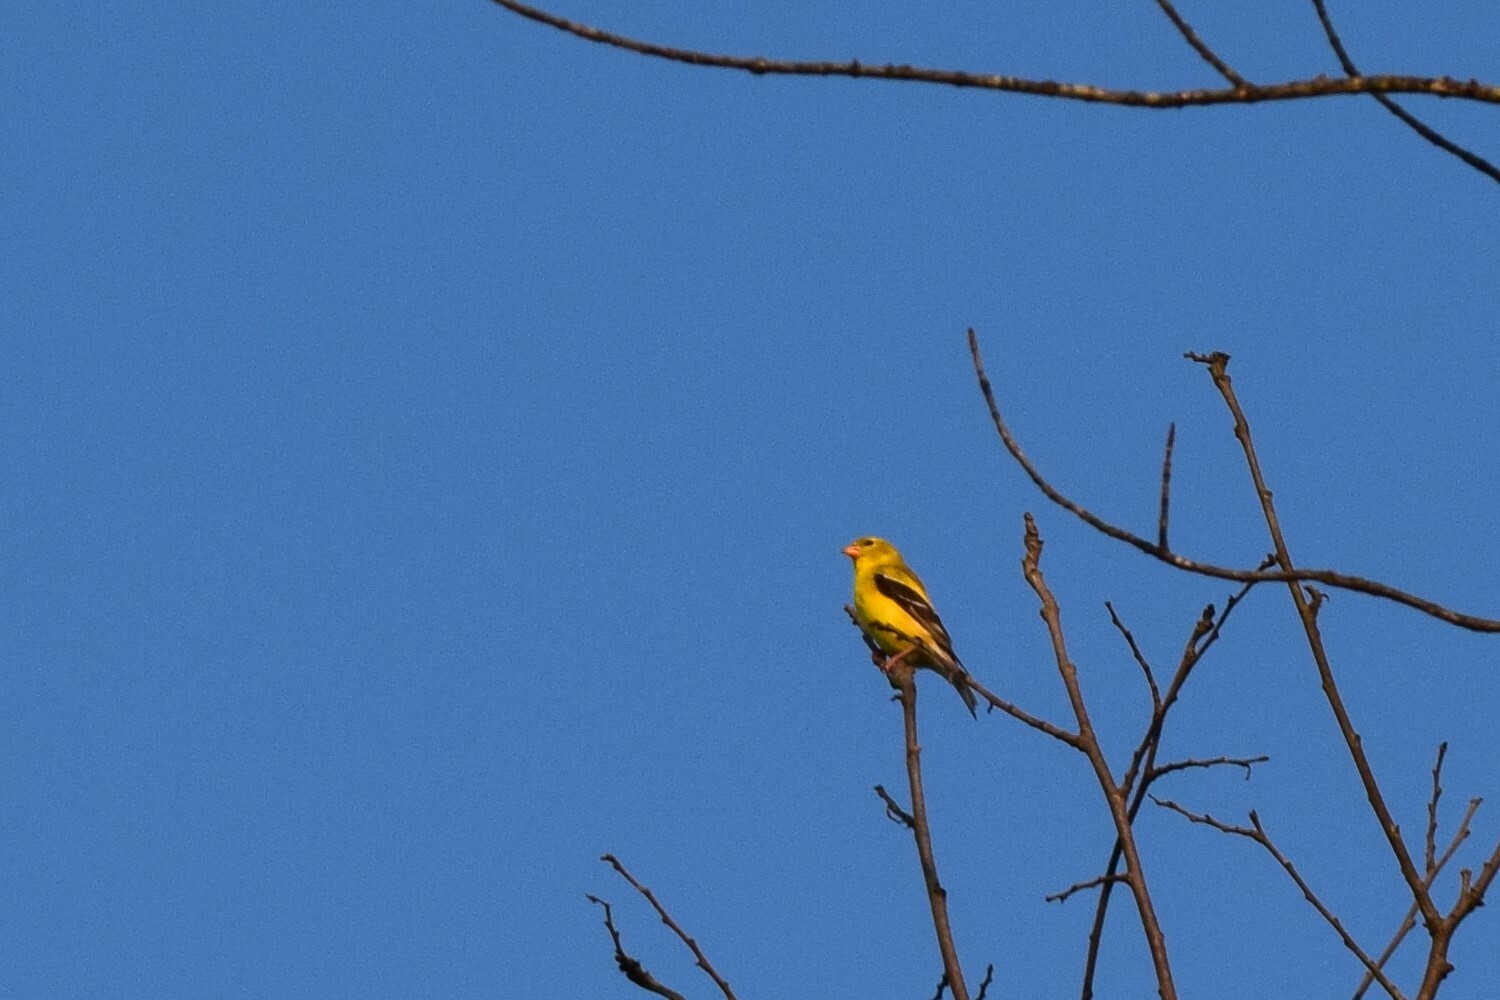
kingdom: Animalia
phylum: Chordata
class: Aves
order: Passeriformes
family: Fringillidae
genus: Spinus
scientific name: Spinus tristis
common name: American goldfinch
